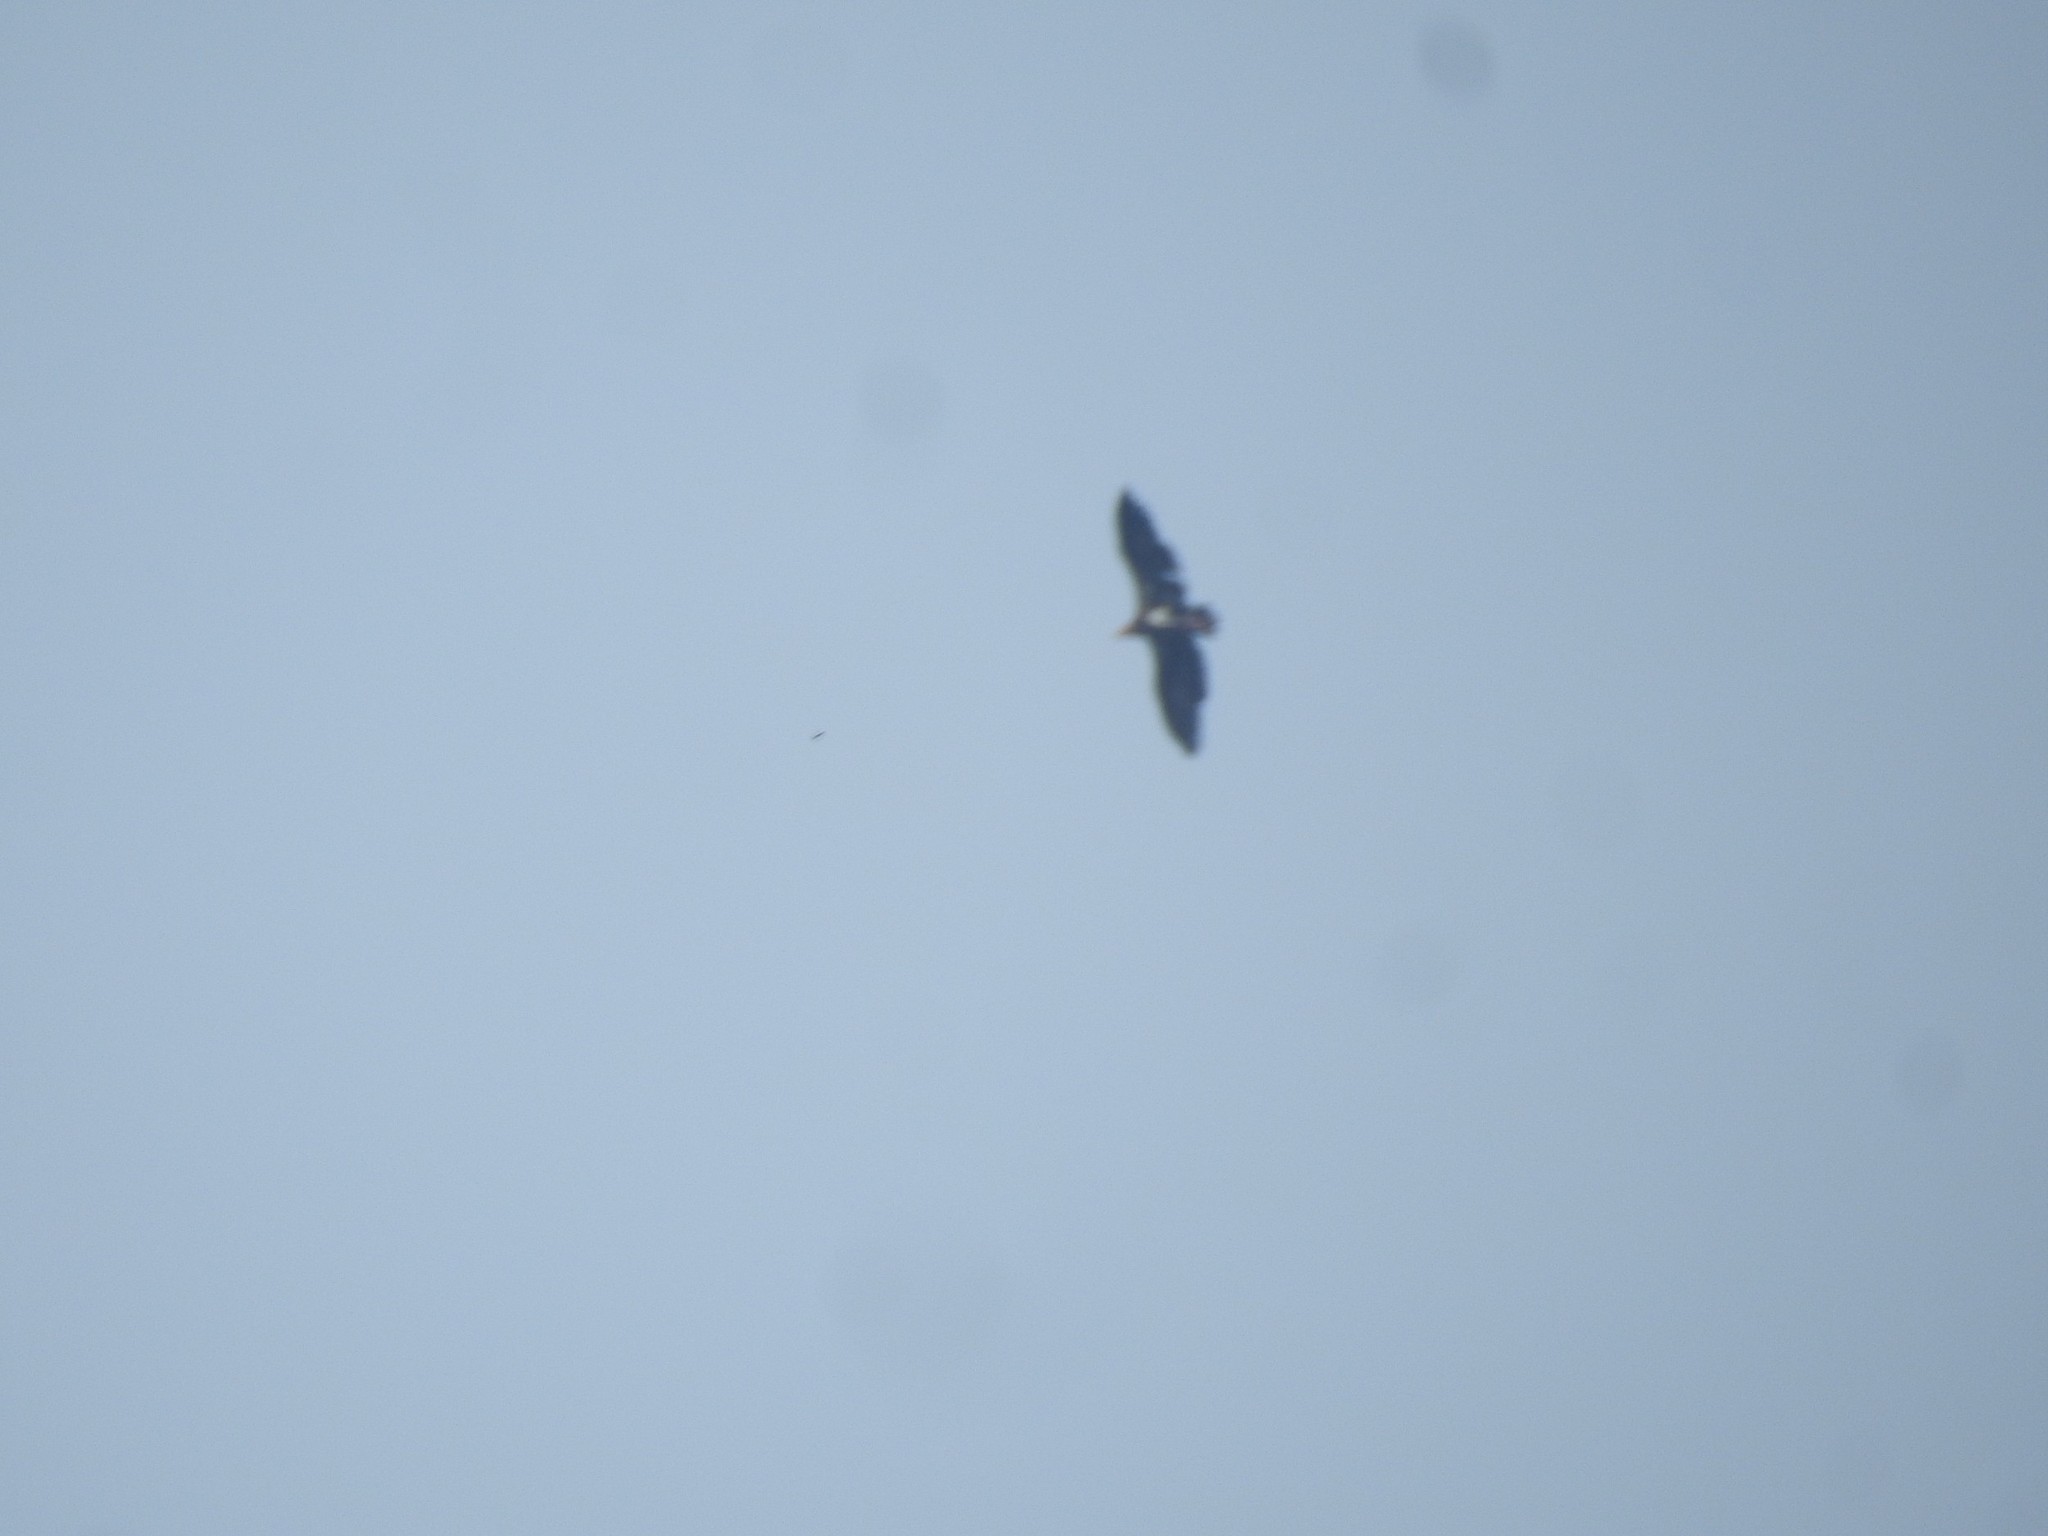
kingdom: Animalia
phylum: Chordata
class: Aves
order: Accipitriformes
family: Accipitridae
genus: Sarcogyps
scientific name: Sarcogyps calvus
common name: Red-headed vulture
